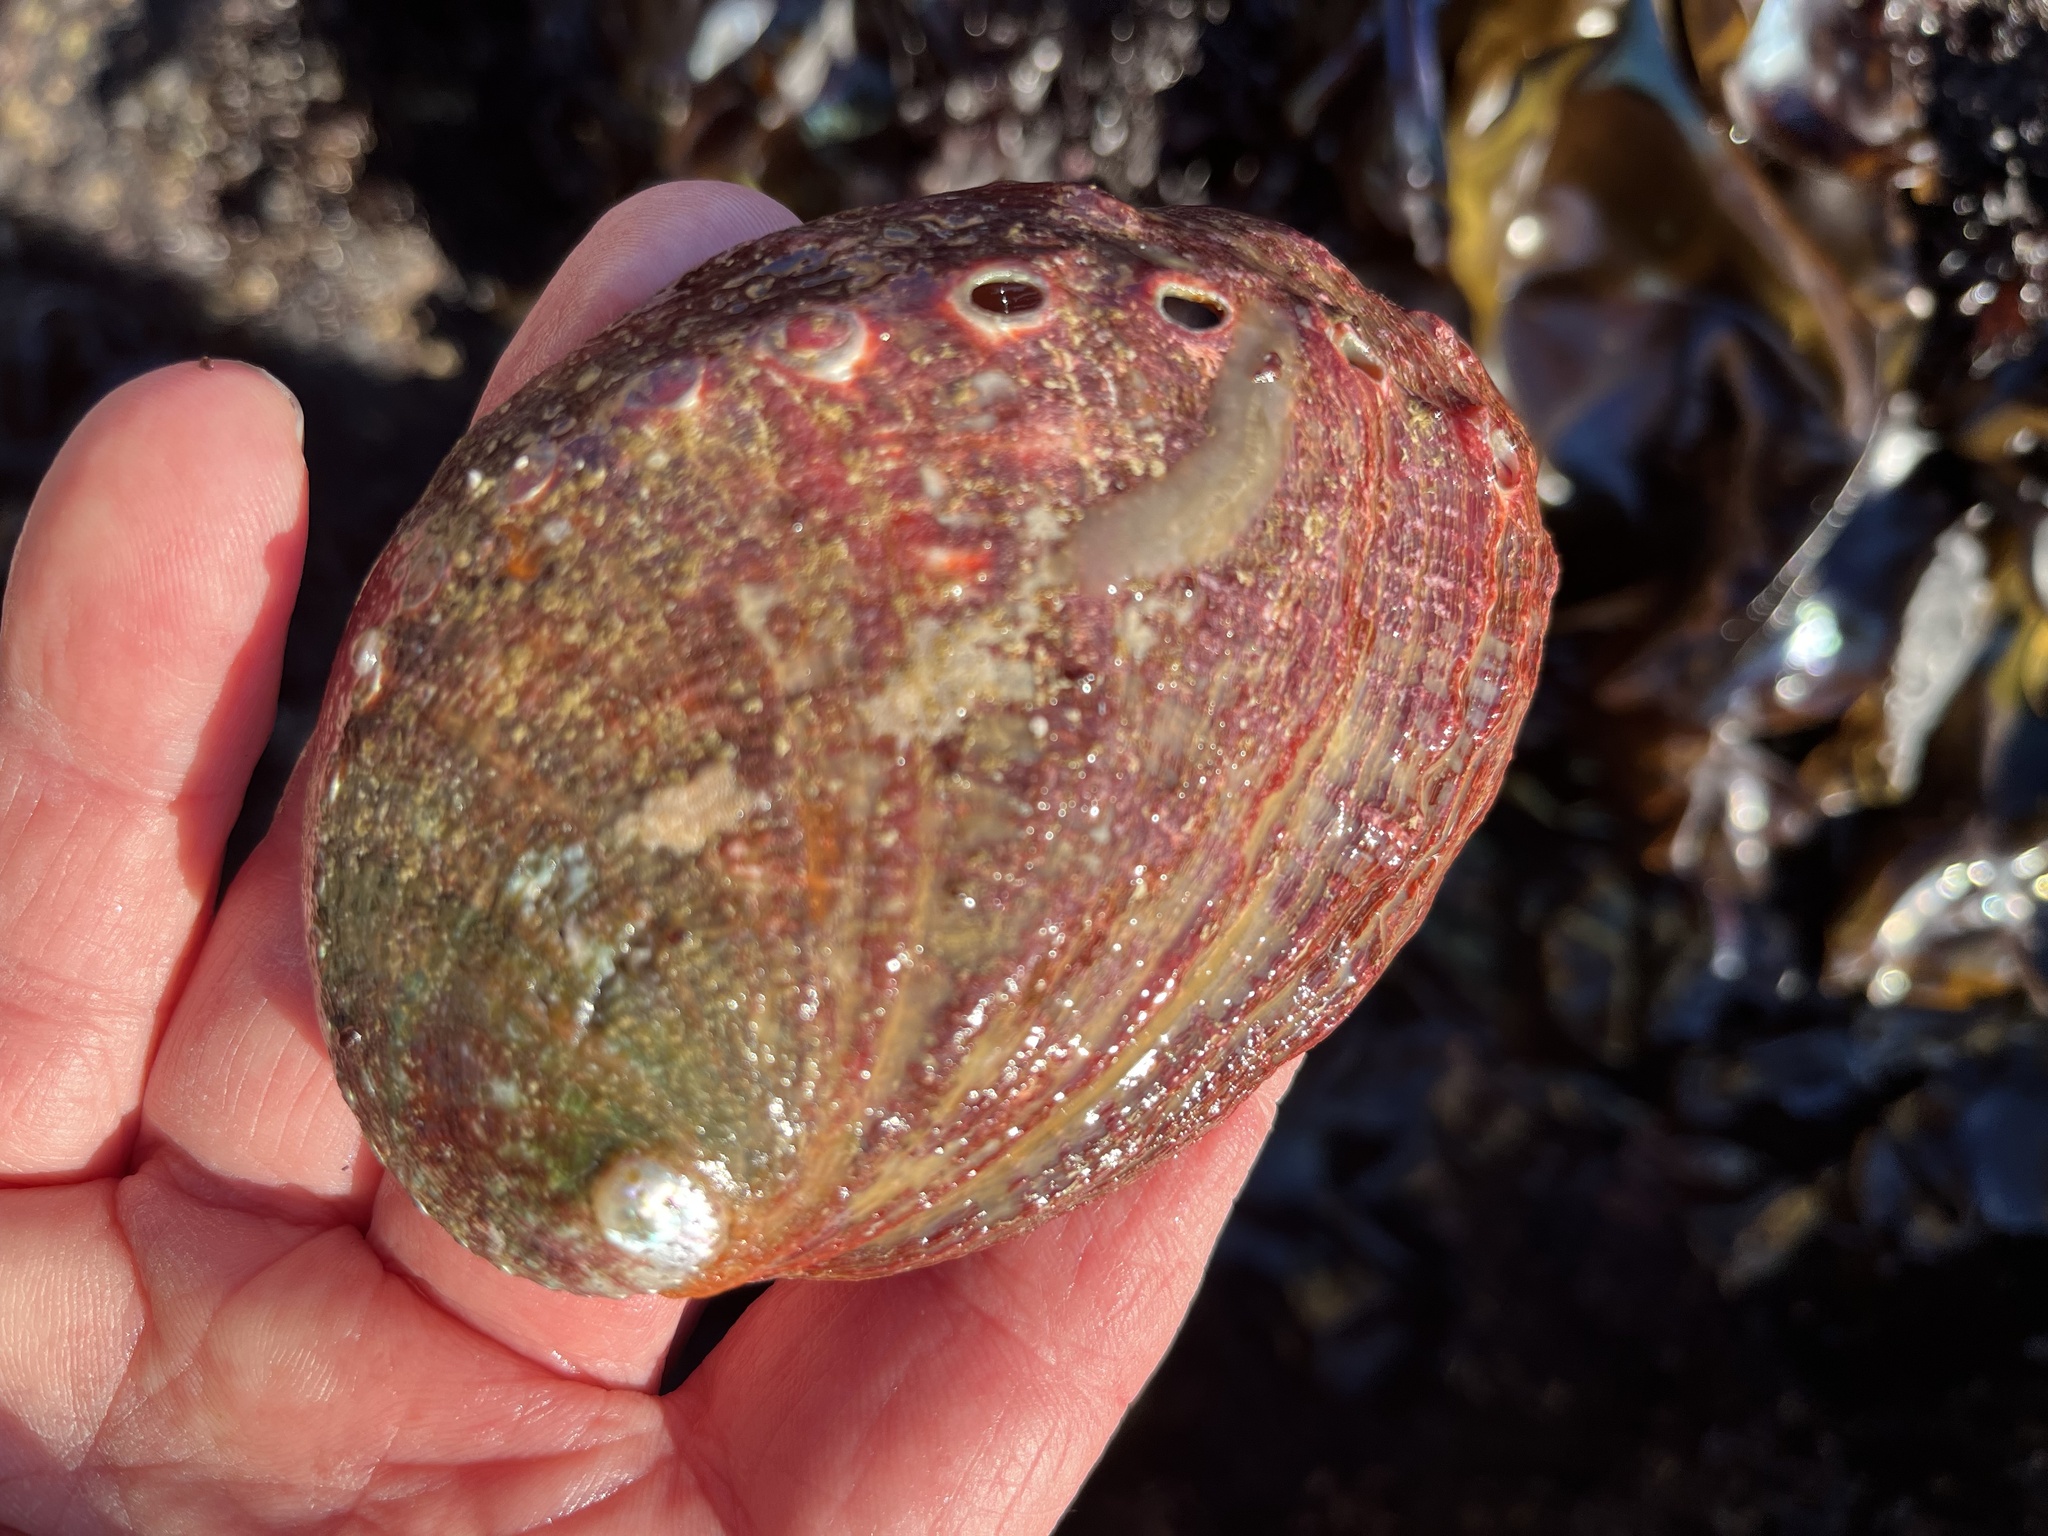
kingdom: Animalia
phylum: Mollusca
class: Gastropoda
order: Lepetellida
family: Haliotidae
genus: Haliotis
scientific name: Haliotis rufescens
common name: Red abalone
